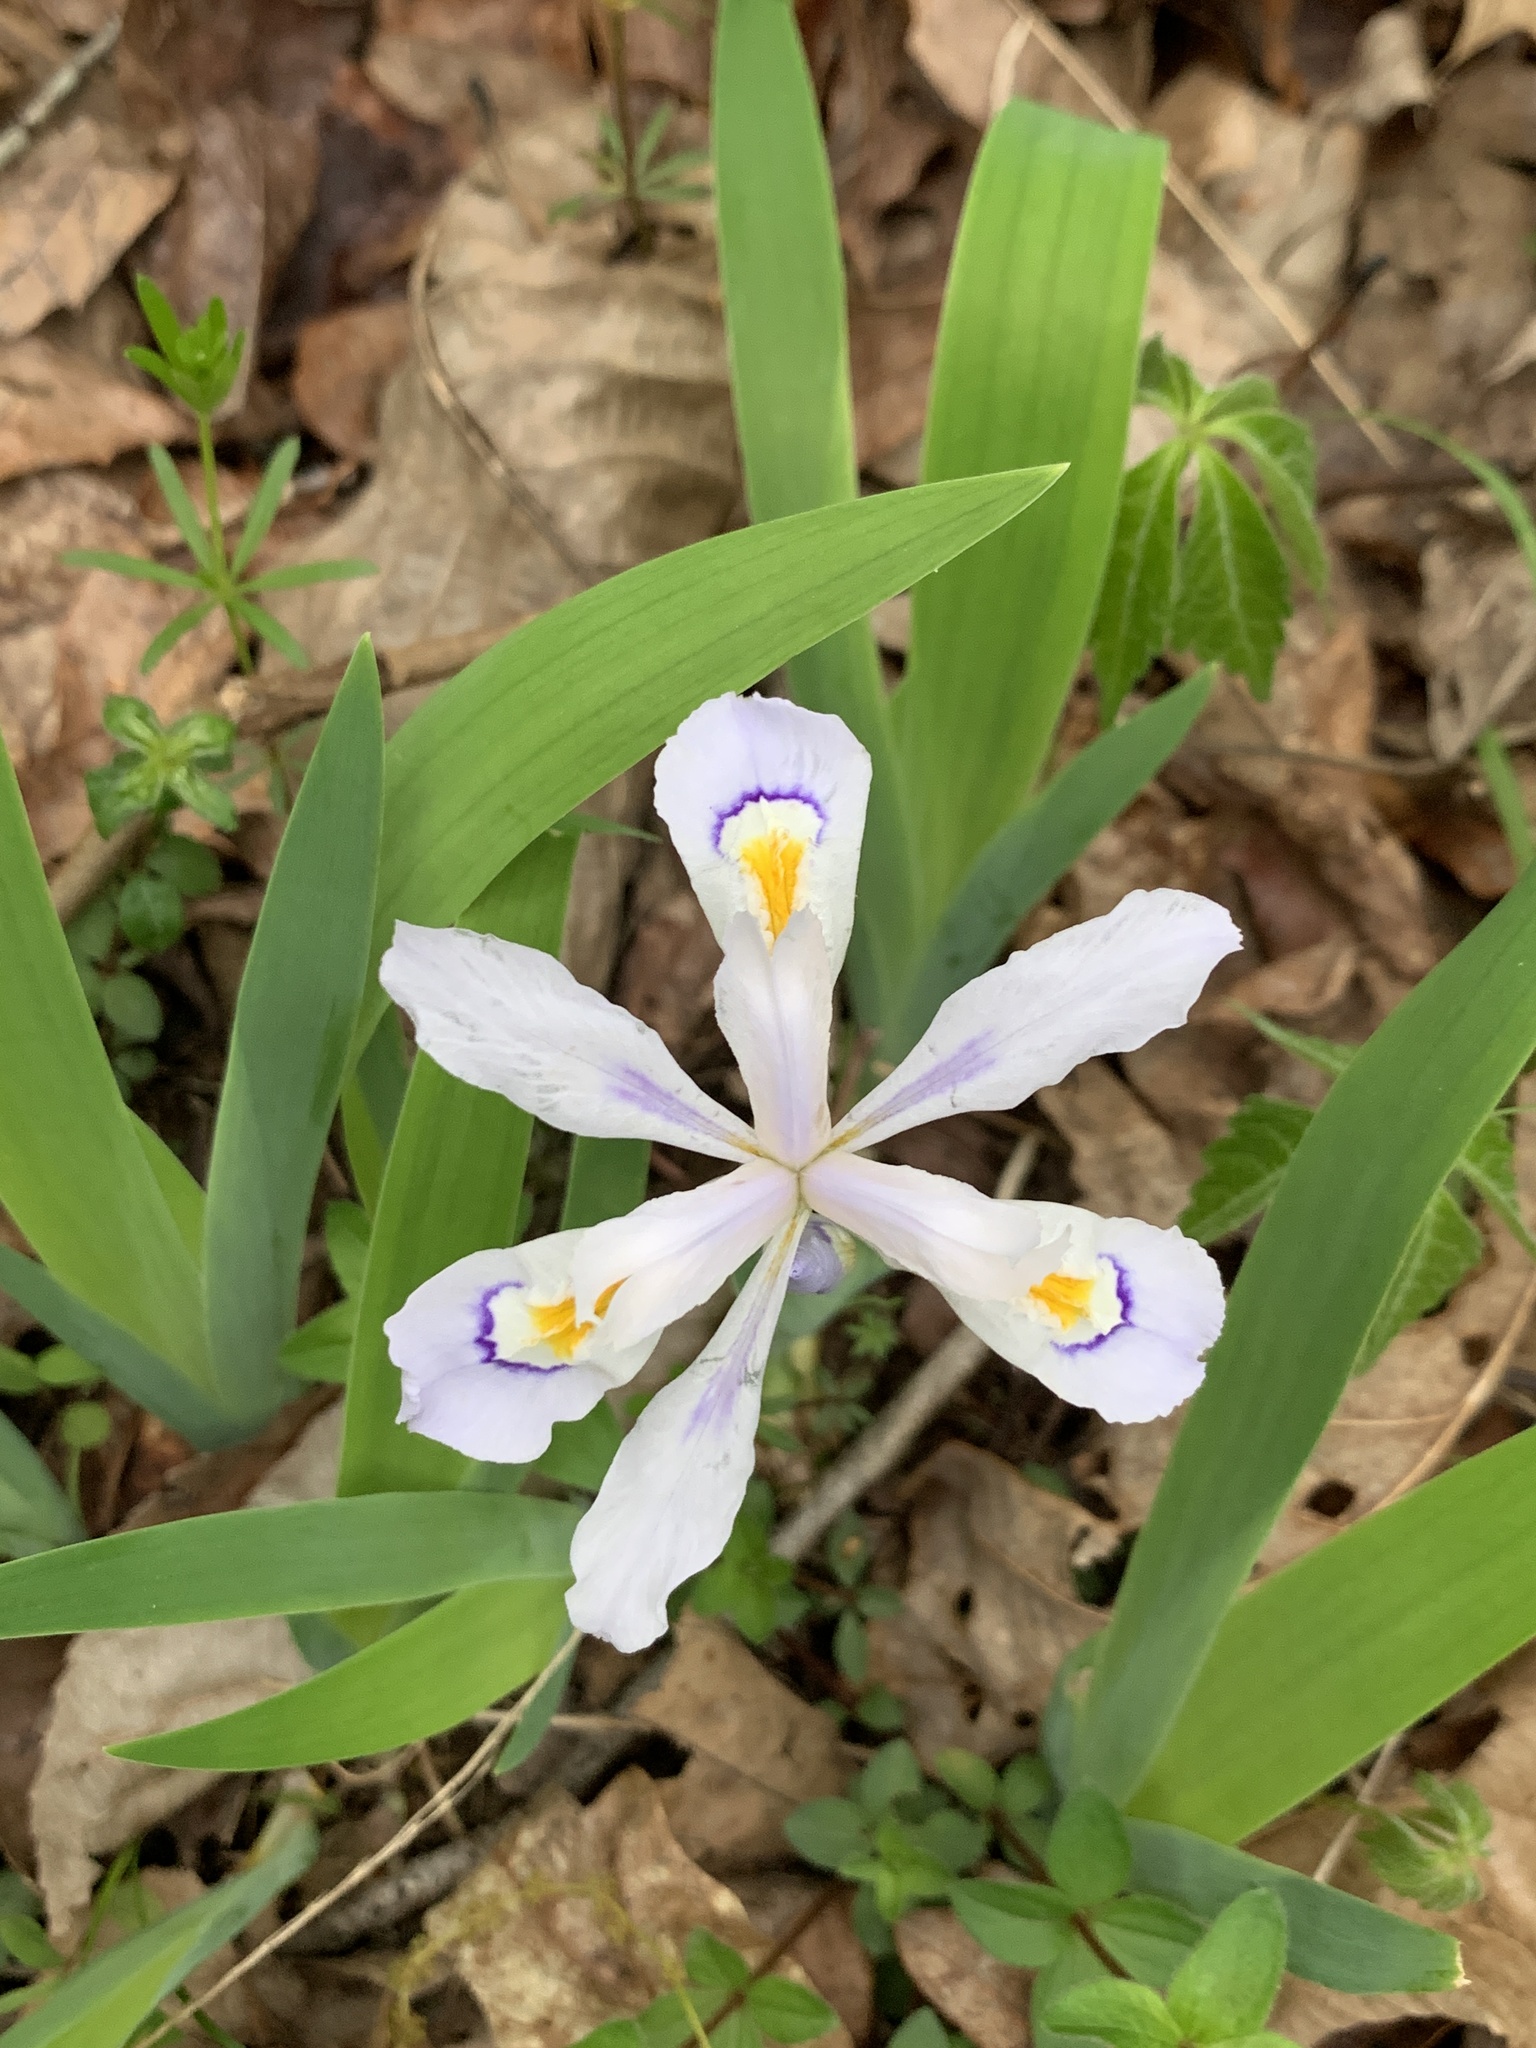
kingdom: Plantae
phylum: Tracheophyta
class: Liliopsida
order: Asparagales
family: Iridaceae
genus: Iris
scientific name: Iris cristata
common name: Crested iris
